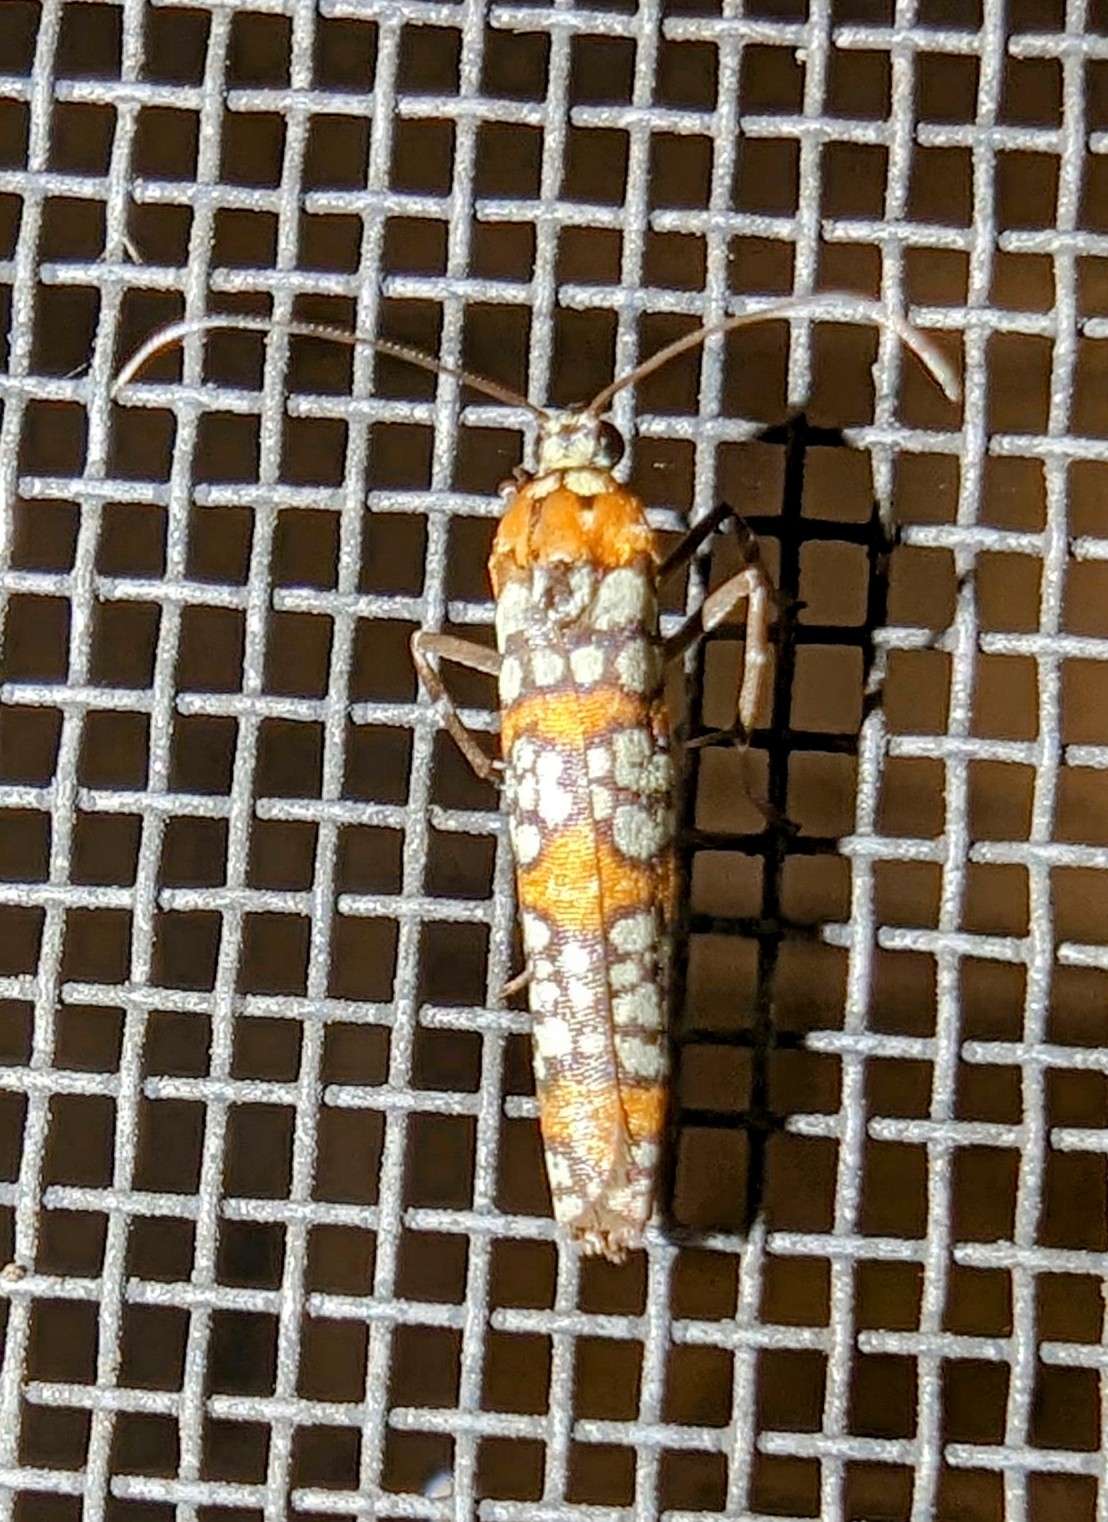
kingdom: Animalia
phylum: Arthropoda
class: Insecta
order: Lepidoptera
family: Attevidae
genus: Atteva
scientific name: Atteva punctella
